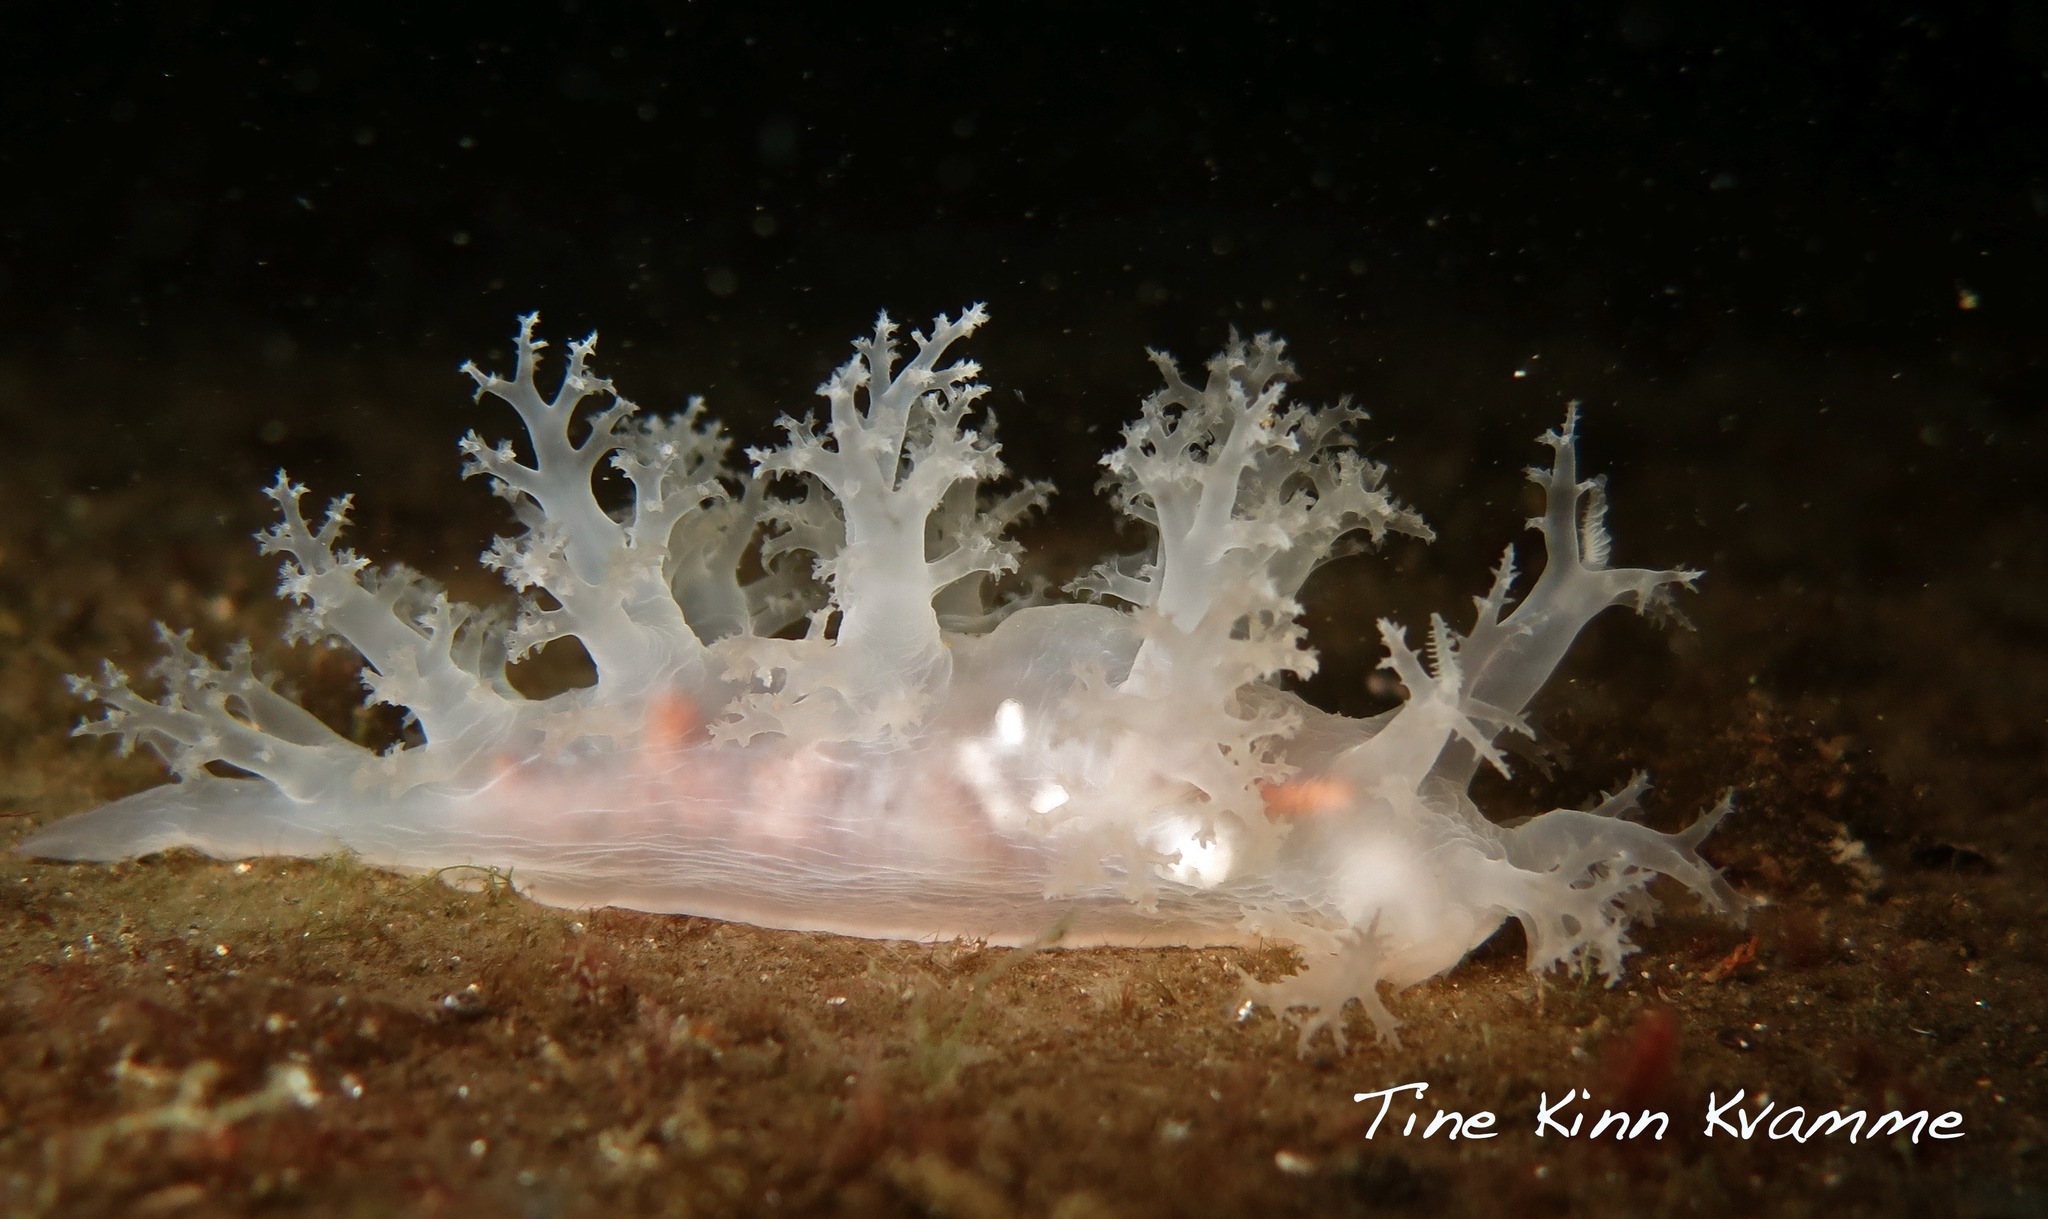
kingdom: Animalia
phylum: Mollusca
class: Gastropoda
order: Nudibranchia
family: Dendronotidae
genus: Dendronotus
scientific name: Dendronotus frondosus
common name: Bushy-backed nudibranch
